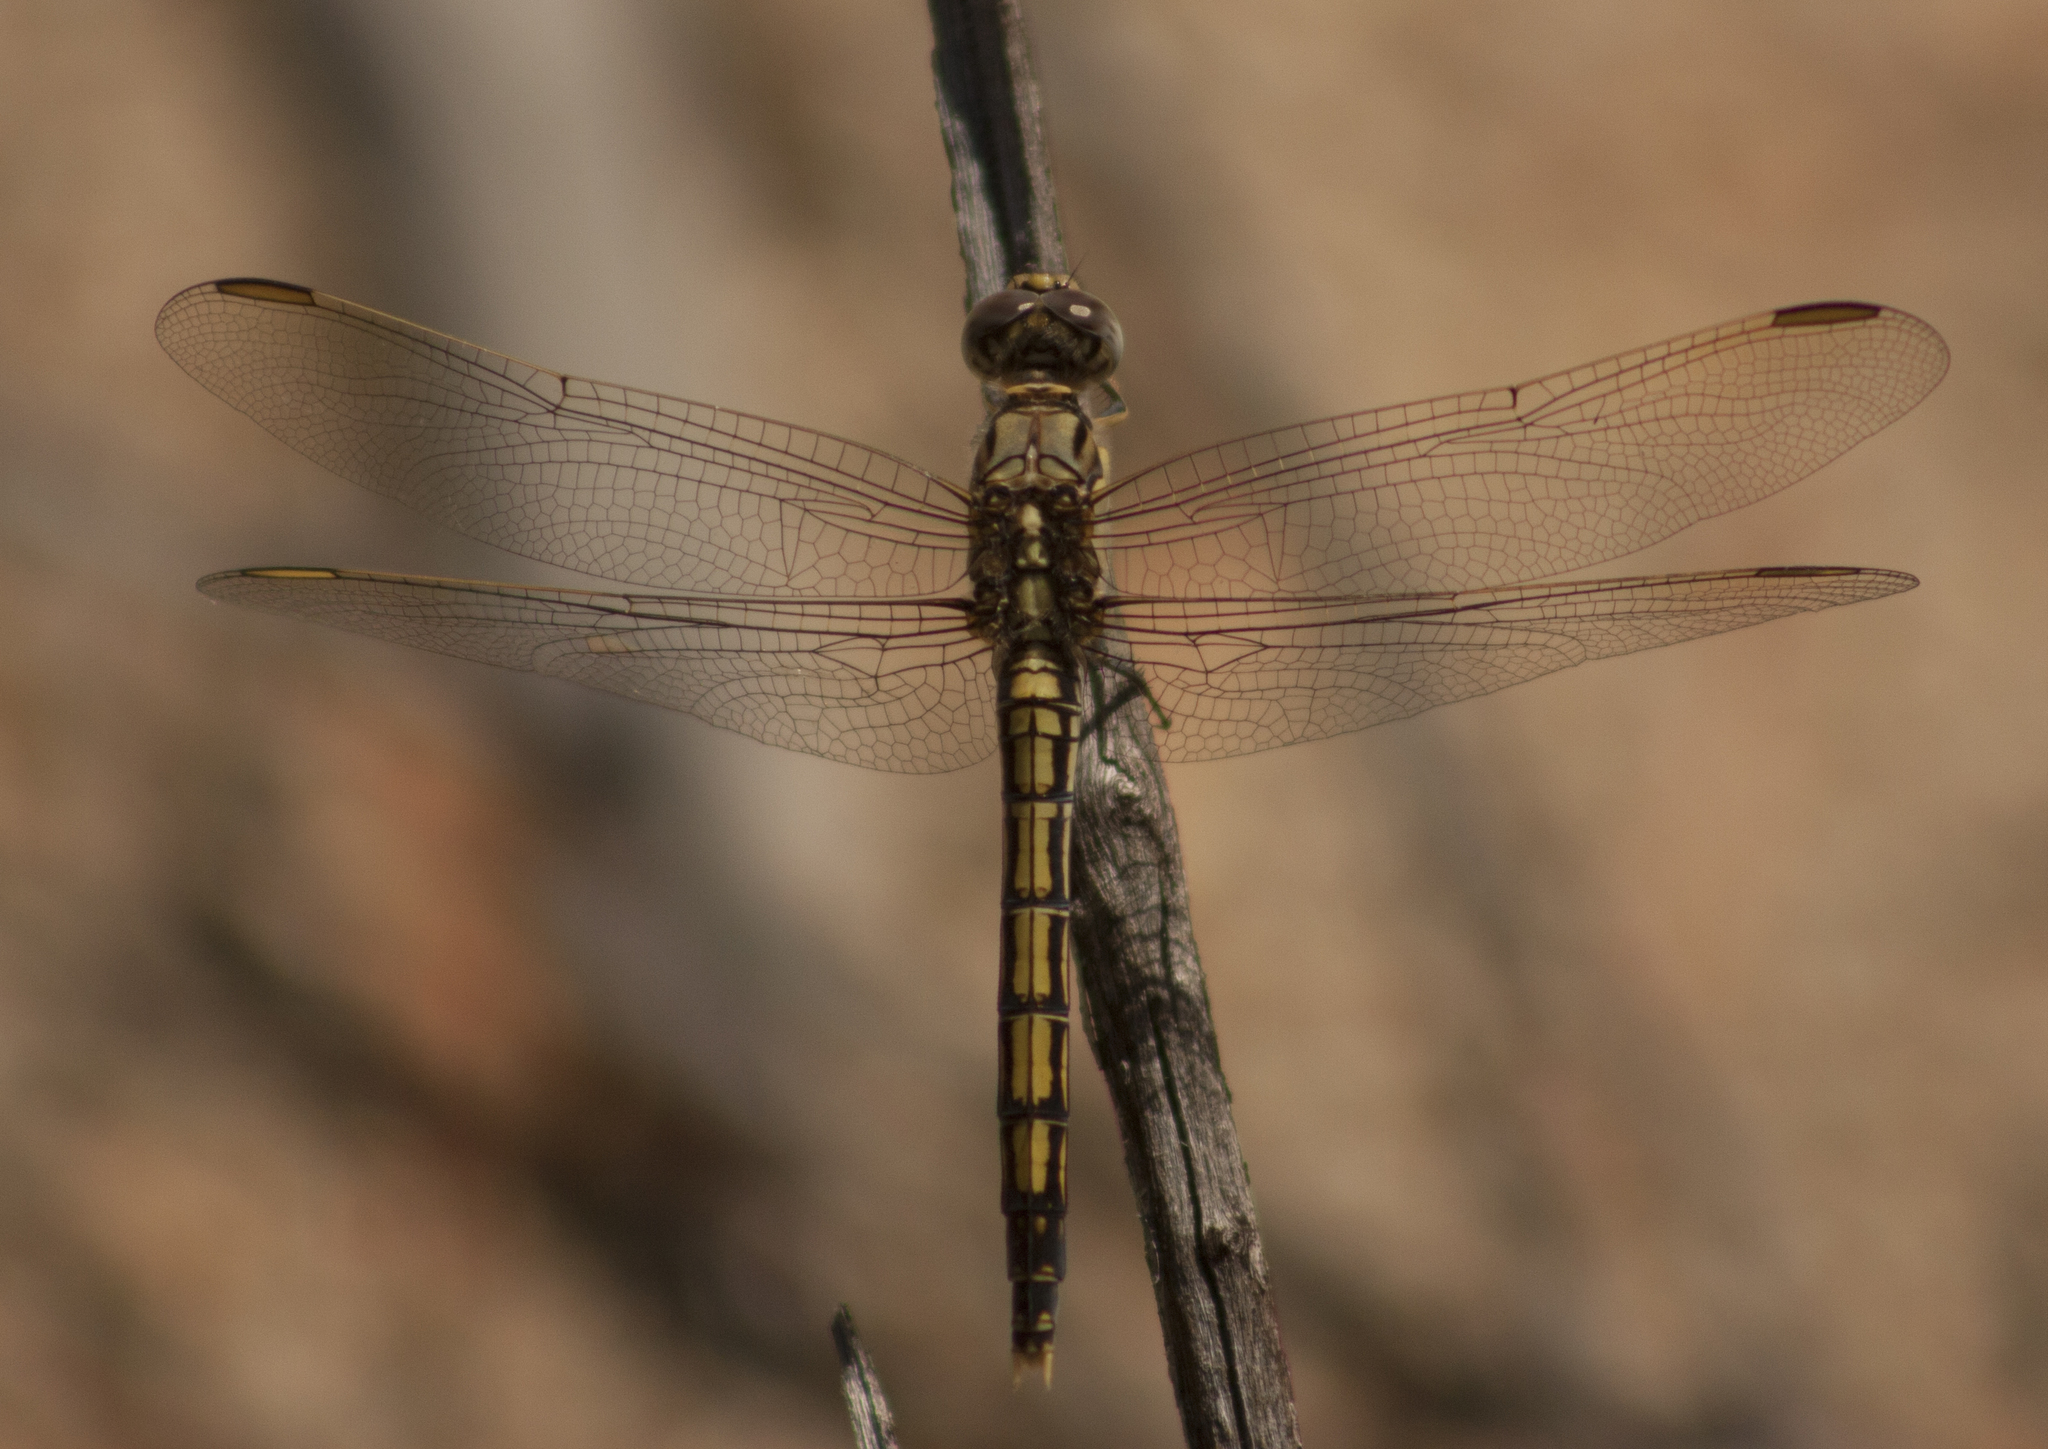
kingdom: Animalia
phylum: Arthropoda
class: Insecta
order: Odonata
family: Libellulidae
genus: Orthetrum
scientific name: Orthetrum caledonicum
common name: Blue skimmer
